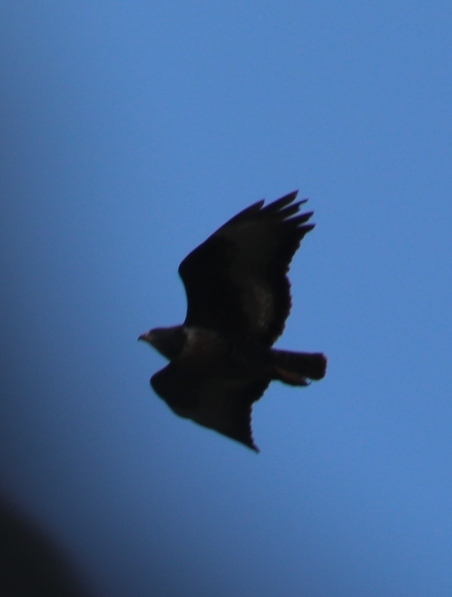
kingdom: Animalia
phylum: Chordata
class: Aves
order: Accipitriformes
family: Accipitridae
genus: Buteo
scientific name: Buteo rufofuscus
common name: Jackal buzzard
